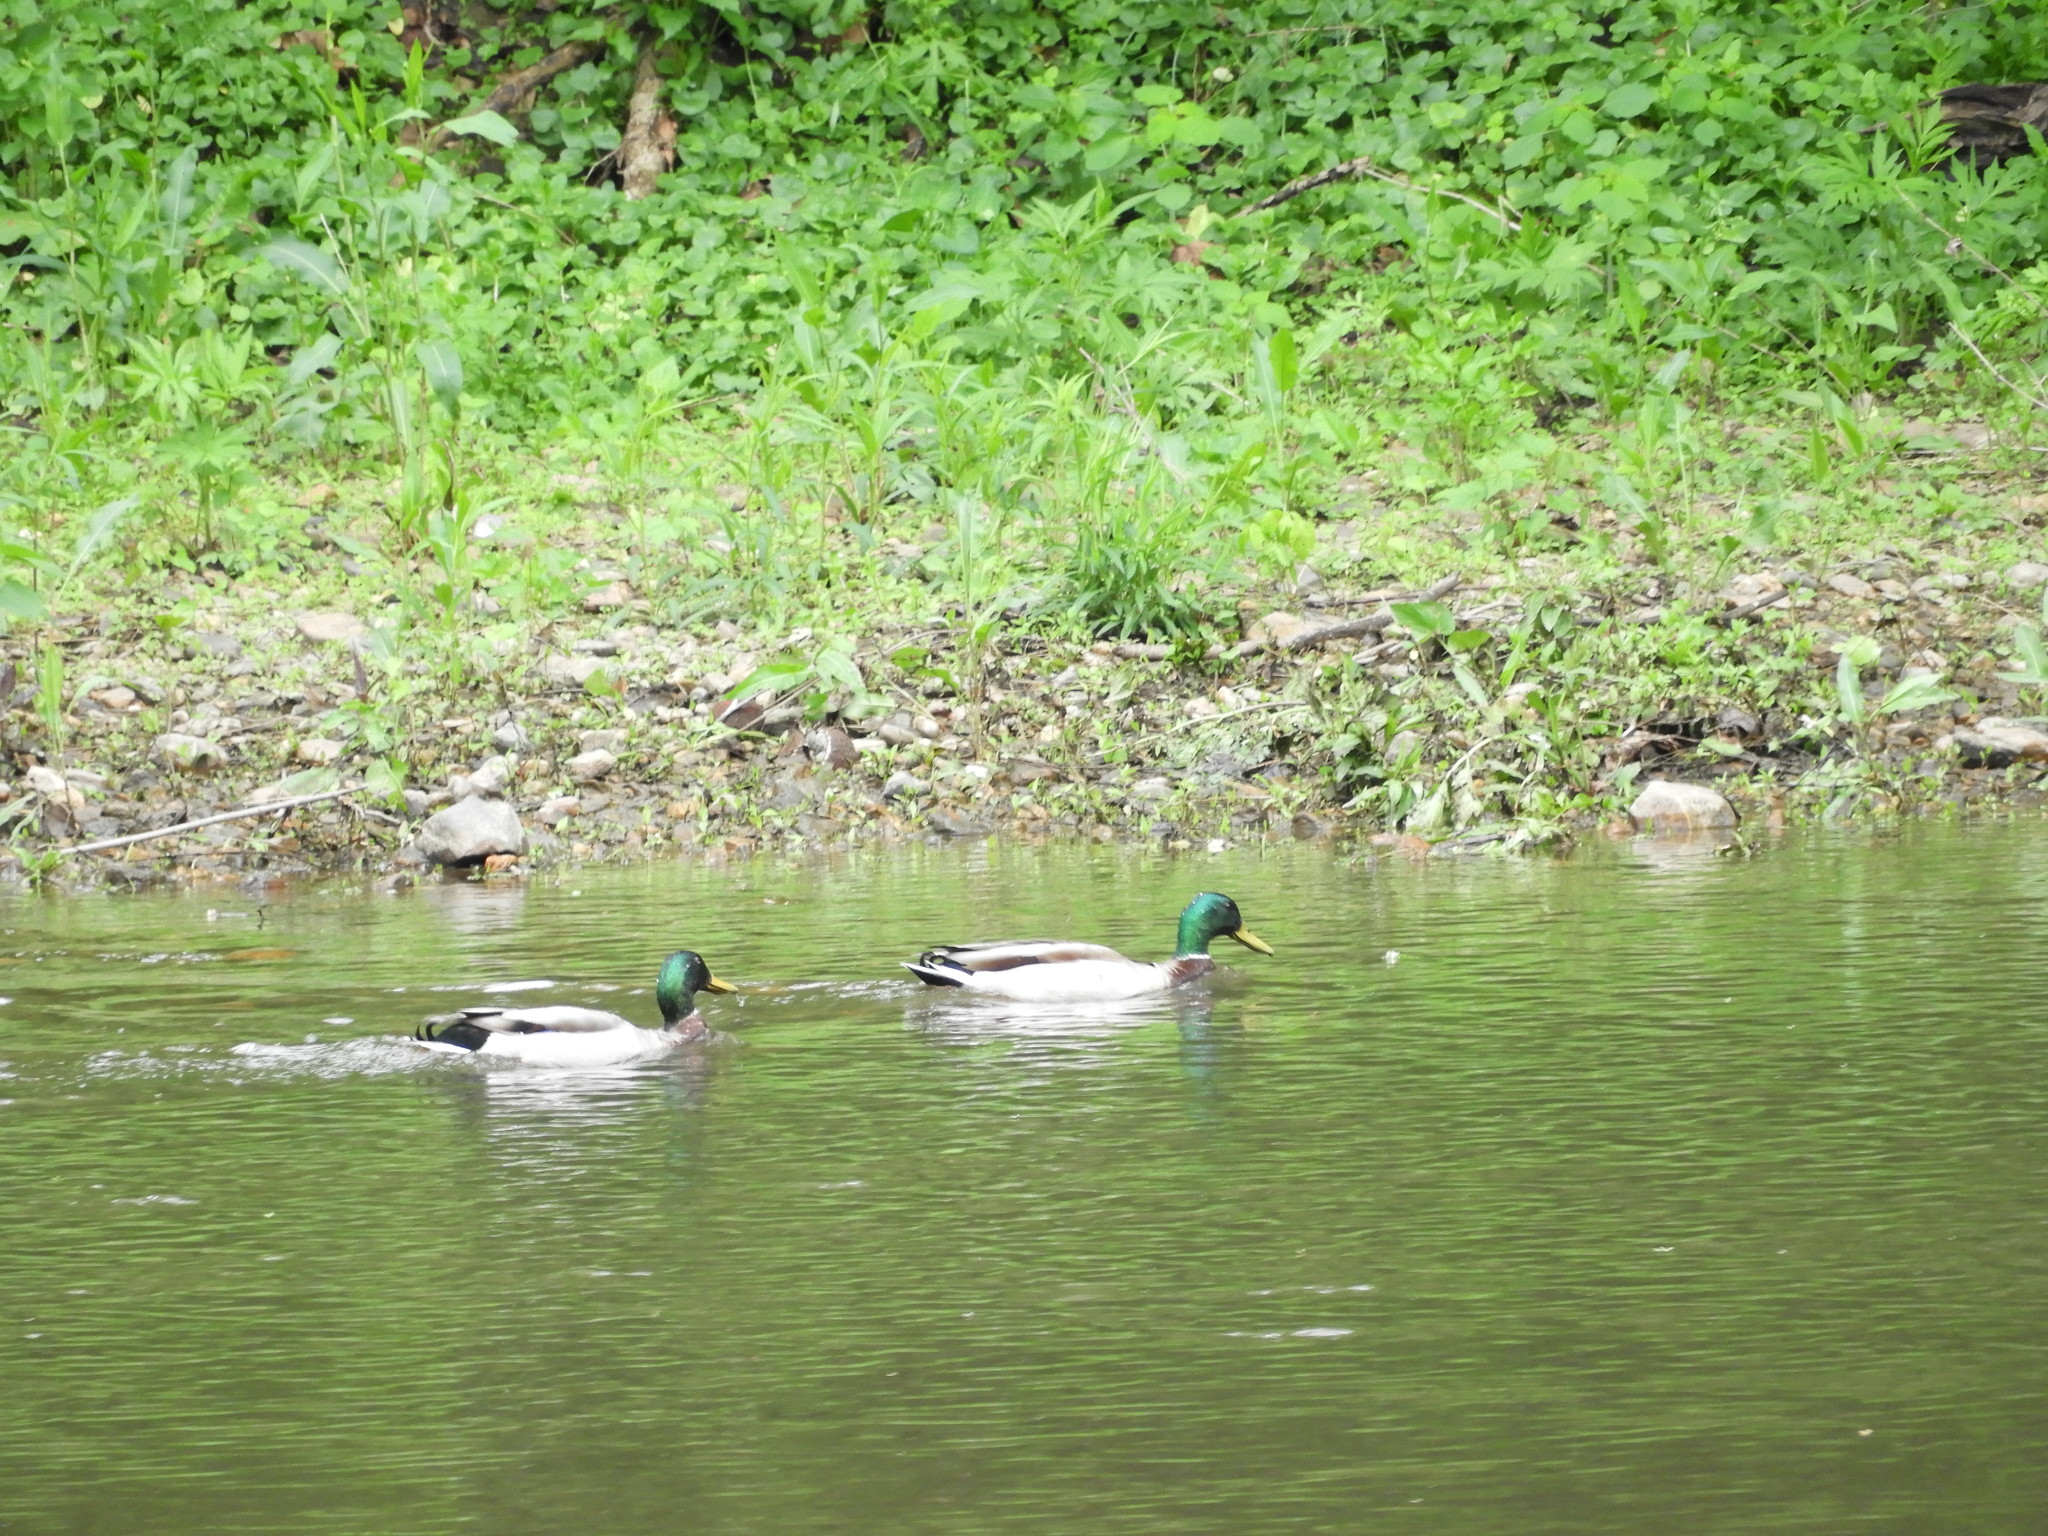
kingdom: Animalia
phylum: Chordata
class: Aves
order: Anseriformes
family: Anatidae
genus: Anas
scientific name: Anas platyrhynchos
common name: Mallard
